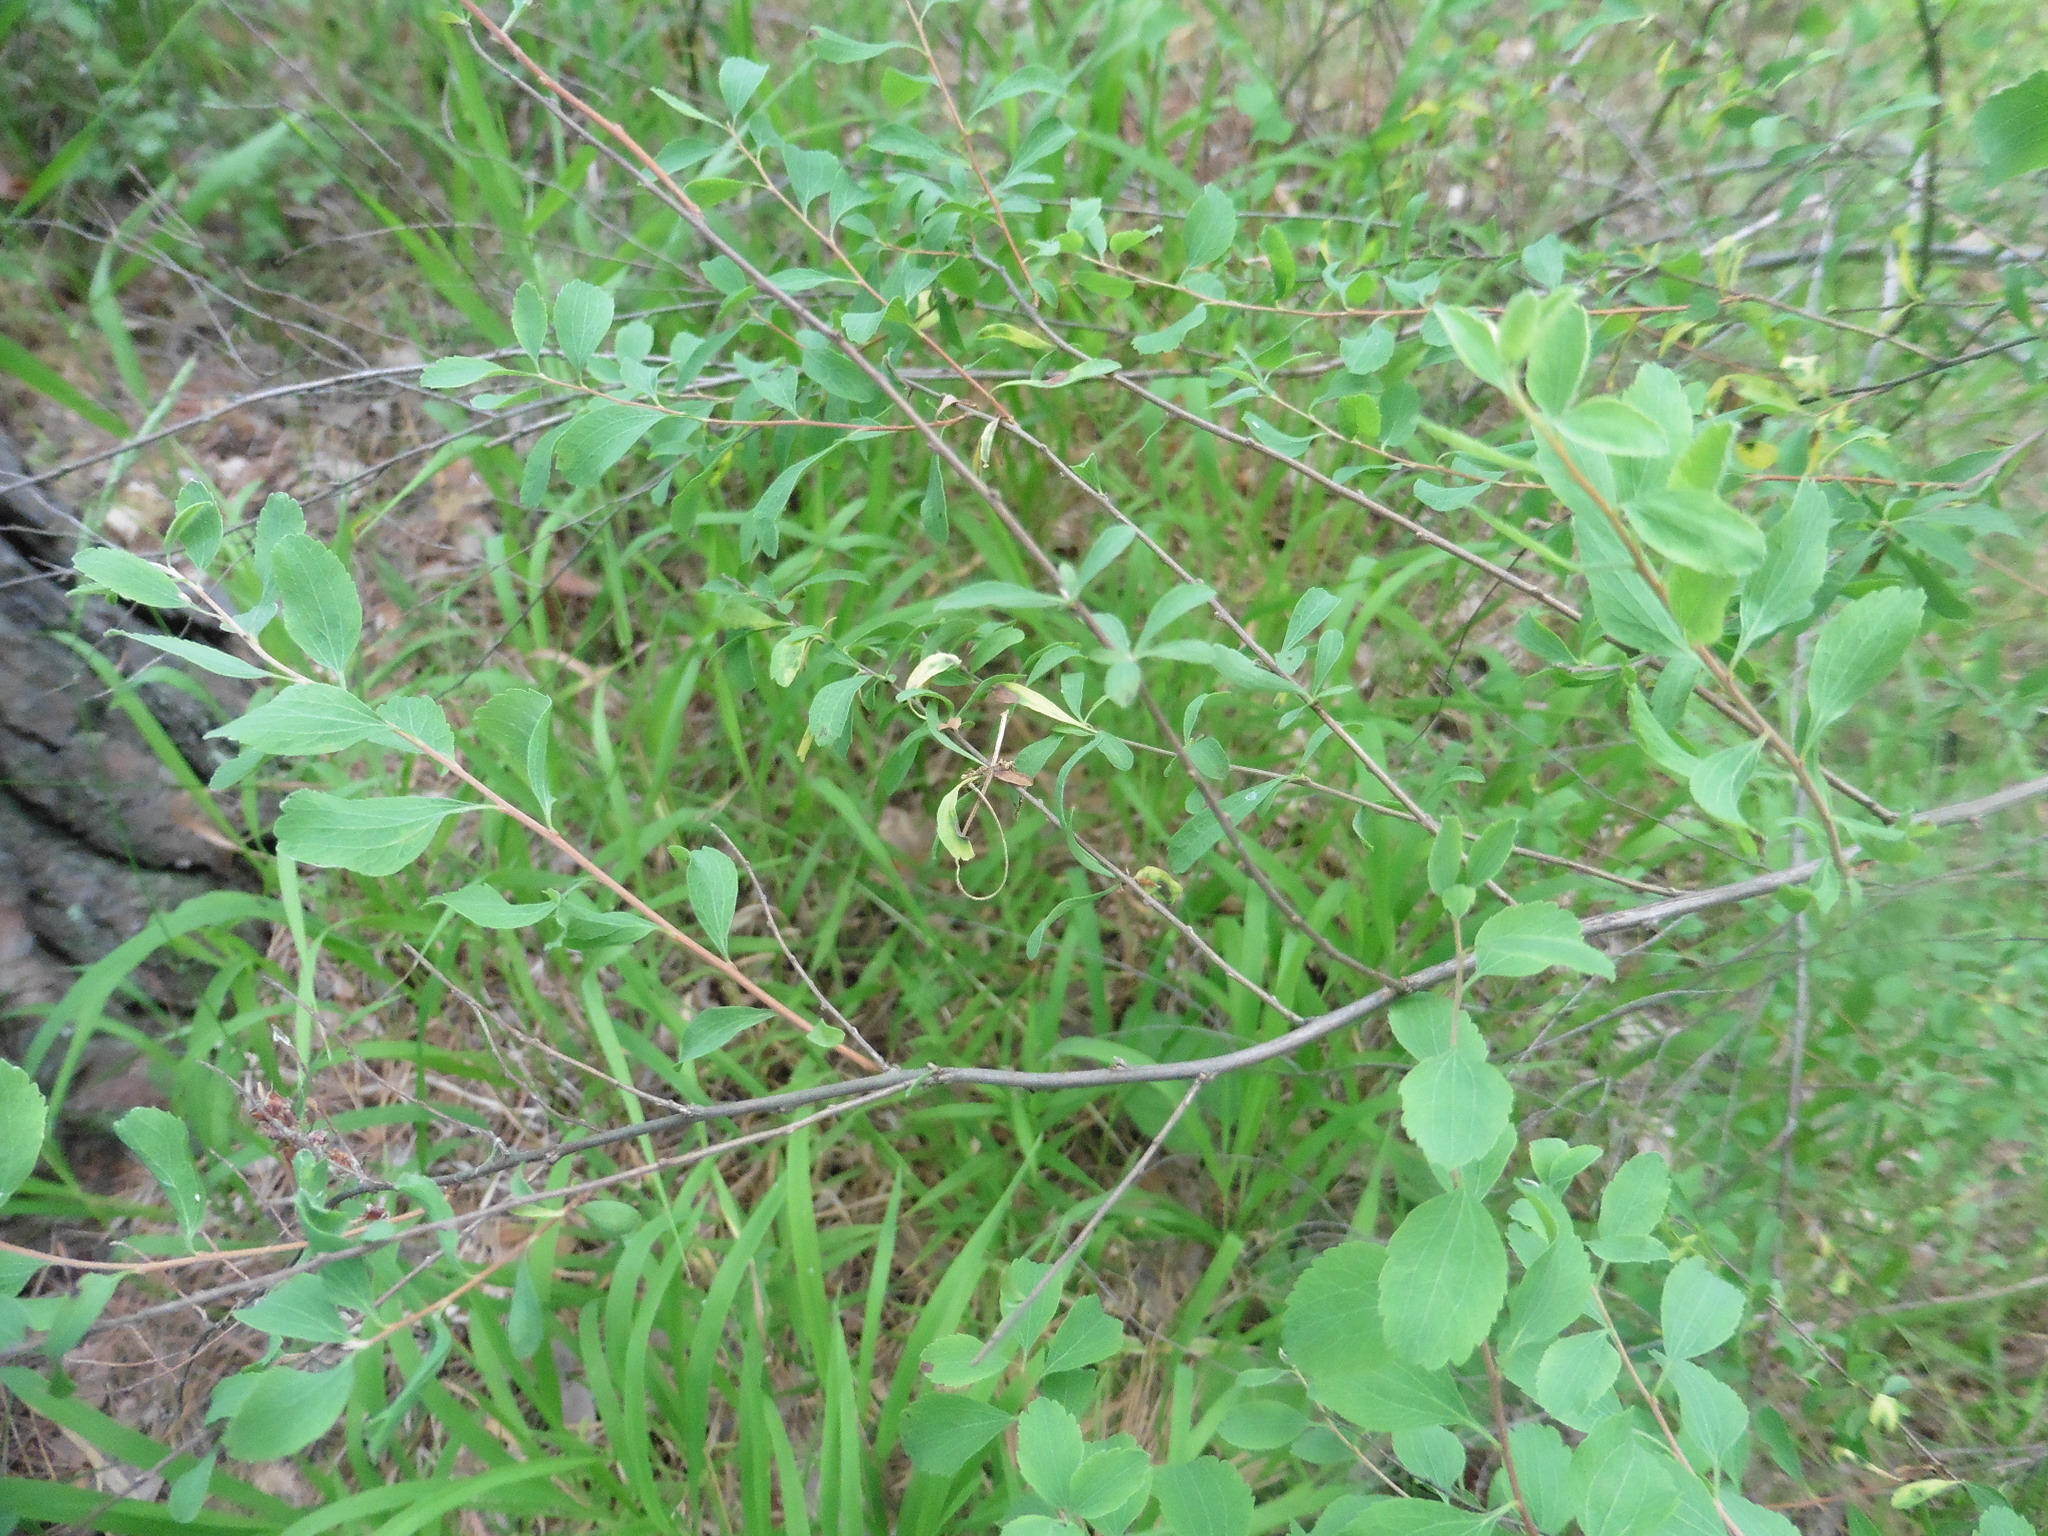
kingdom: Plantae
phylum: Tracheophyta
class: Magnoliopsida
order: Rosales
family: Rosaceae
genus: Spiraea
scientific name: Spiraea crenata
